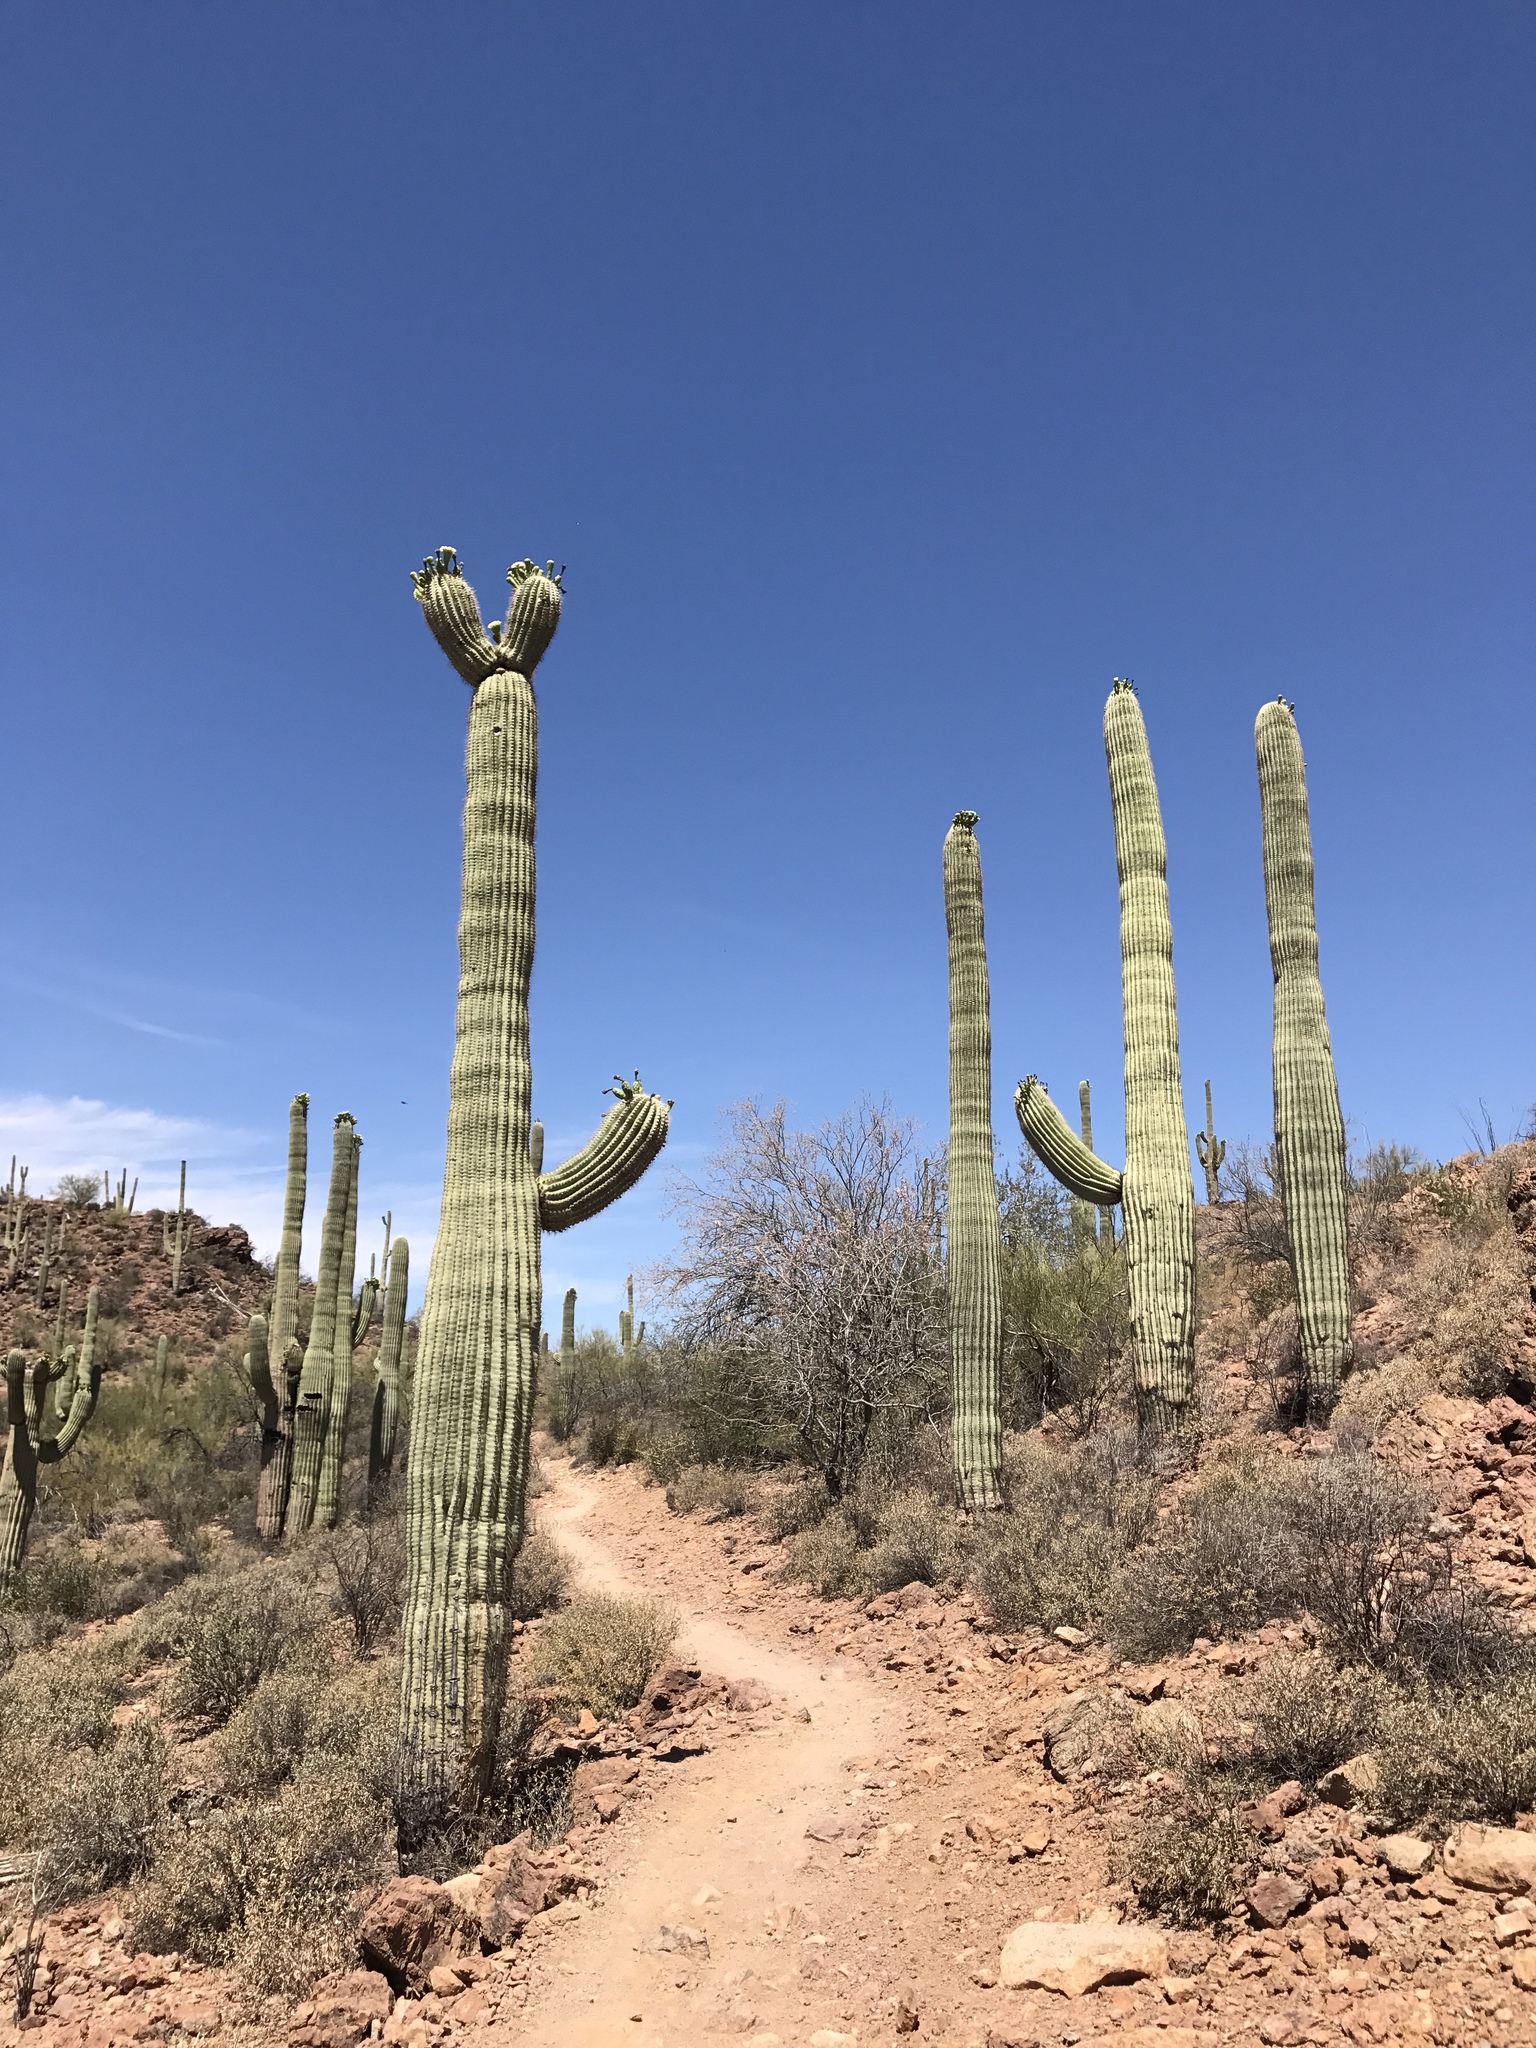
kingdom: Plantae
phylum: Tracheophyta
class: Magnoliopsida
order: Caryophyllales
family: Cactaceae
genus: Carnegiea
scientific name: Carnegiea gigantea
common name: Saguaro
